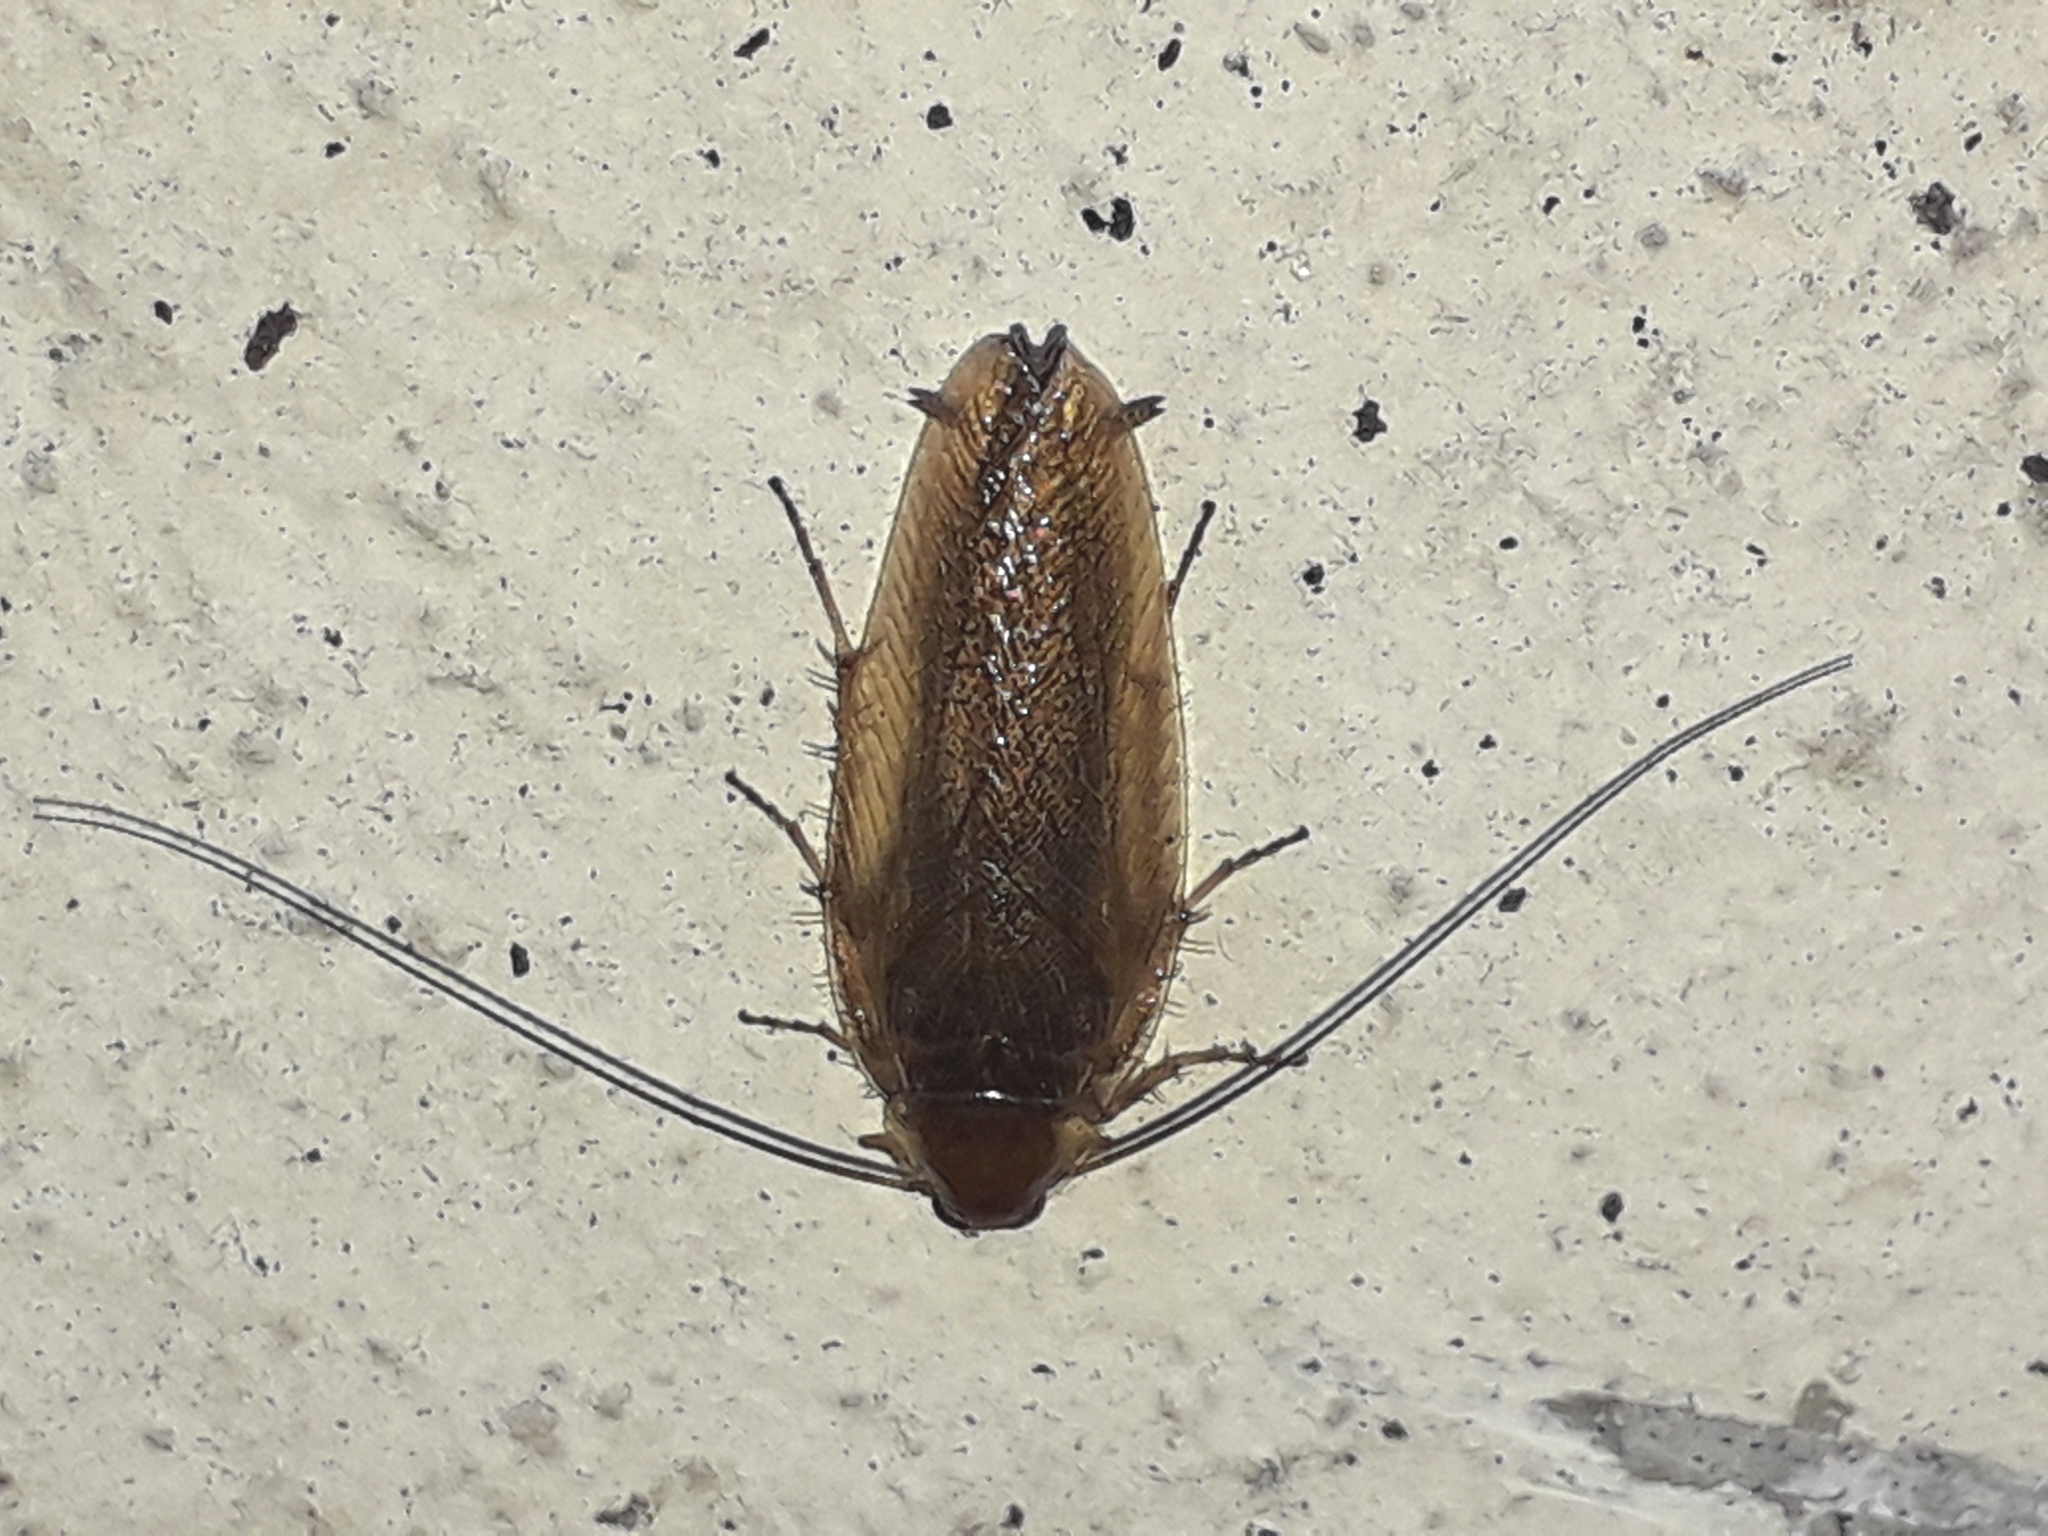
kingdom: Animalia
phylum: Arthropoda
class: Insecta
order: Blattodea
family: Ectobiidae
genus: Ectobius
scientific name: Ectobius vittiventris
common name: Garden cockroach
